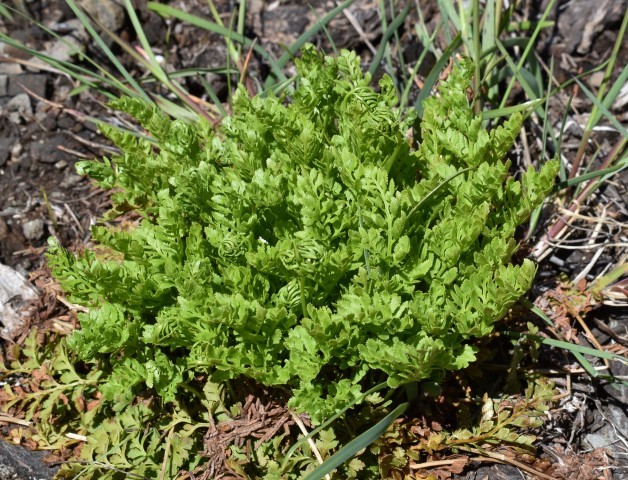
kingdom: Plantae
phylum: Tracheophyta
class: Polypodiopsida
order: Polypodiales
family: Pteridaceae
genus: Cryptogramma
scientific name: Cryptogramma acrostichoides
